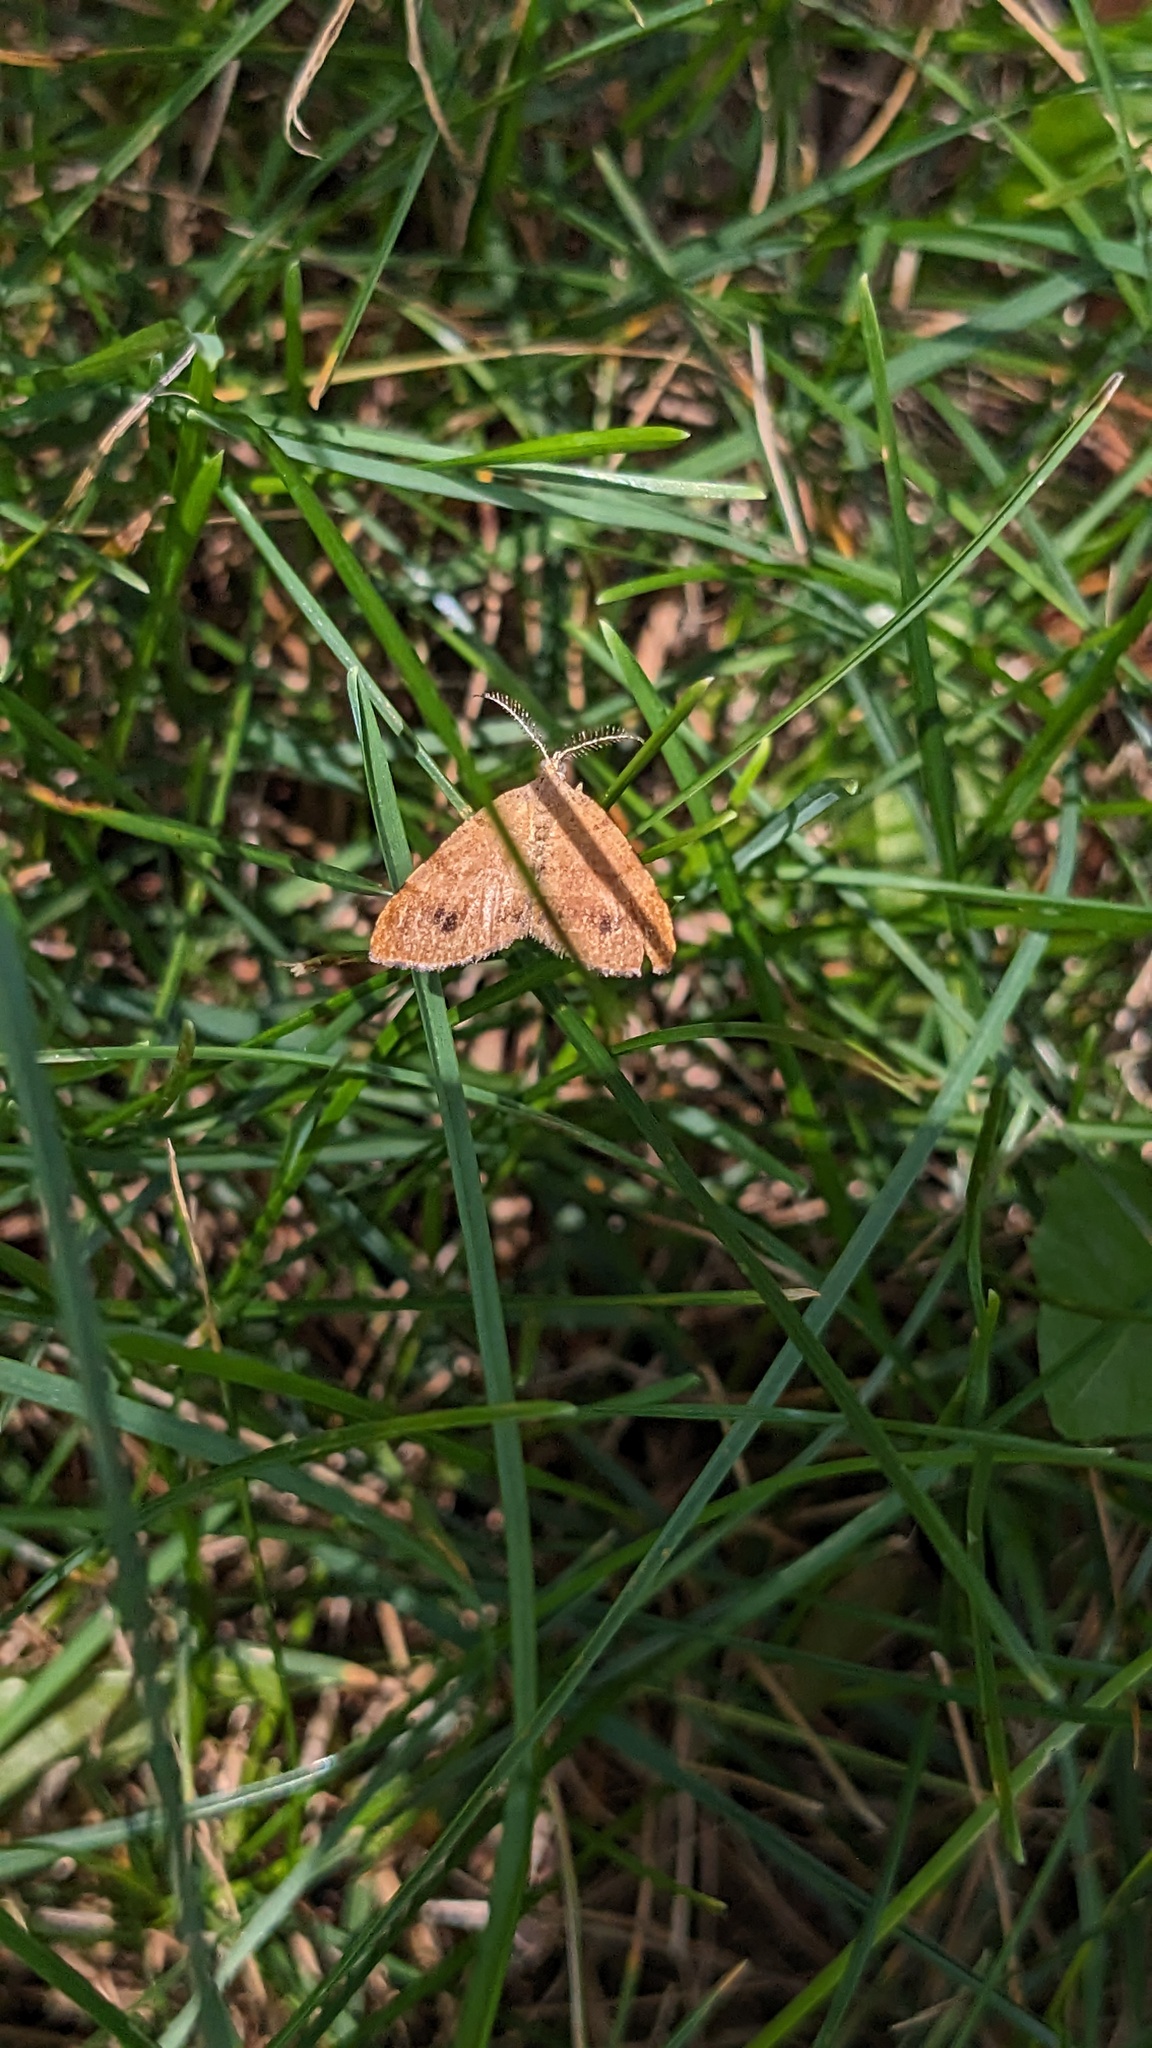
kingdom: Animalia
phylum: Arthropoda
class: Insecta
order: Lepidoptera
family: Geometridae
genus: Mellilla
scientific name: Mellilla xanthometata
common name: Orange wing moth
